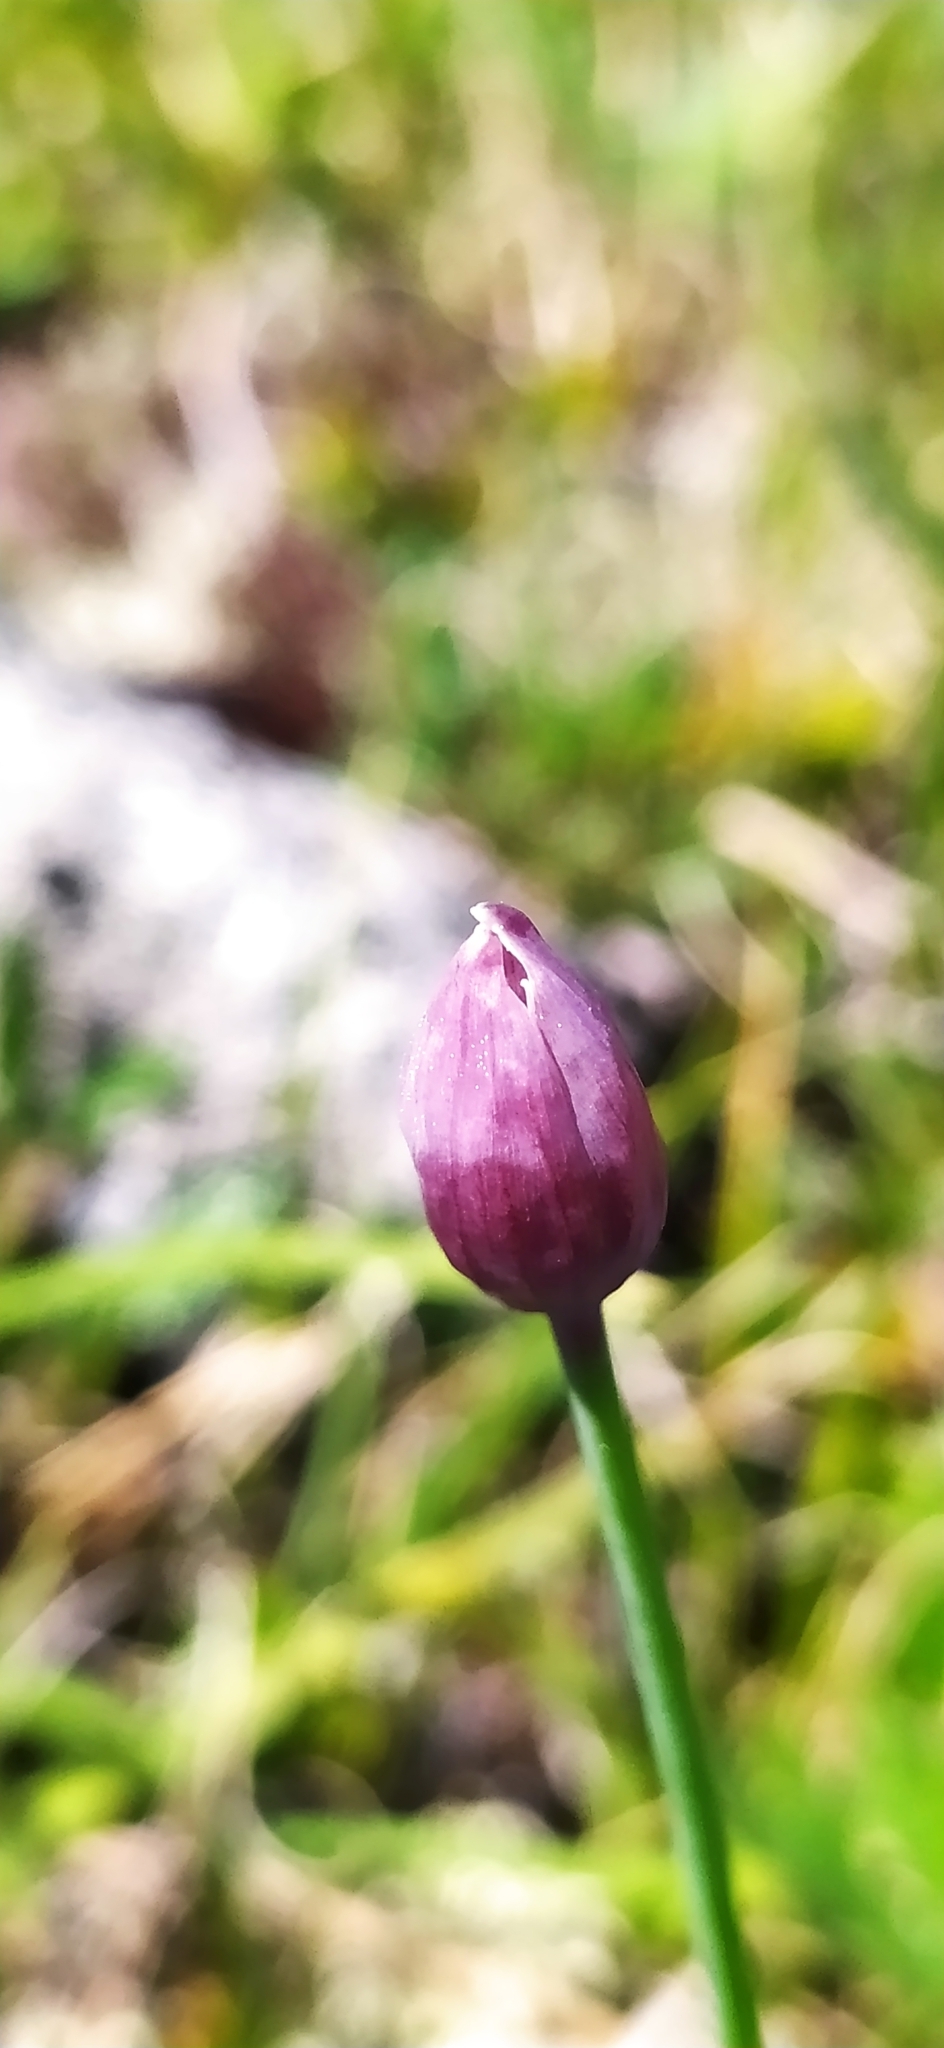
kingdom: Plantae
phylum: Tracheophyta
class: Liliopsida
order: Asparagales
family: Amaryllidaceae
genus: Allium
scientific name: Allium schoenoprasum
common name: Chives
